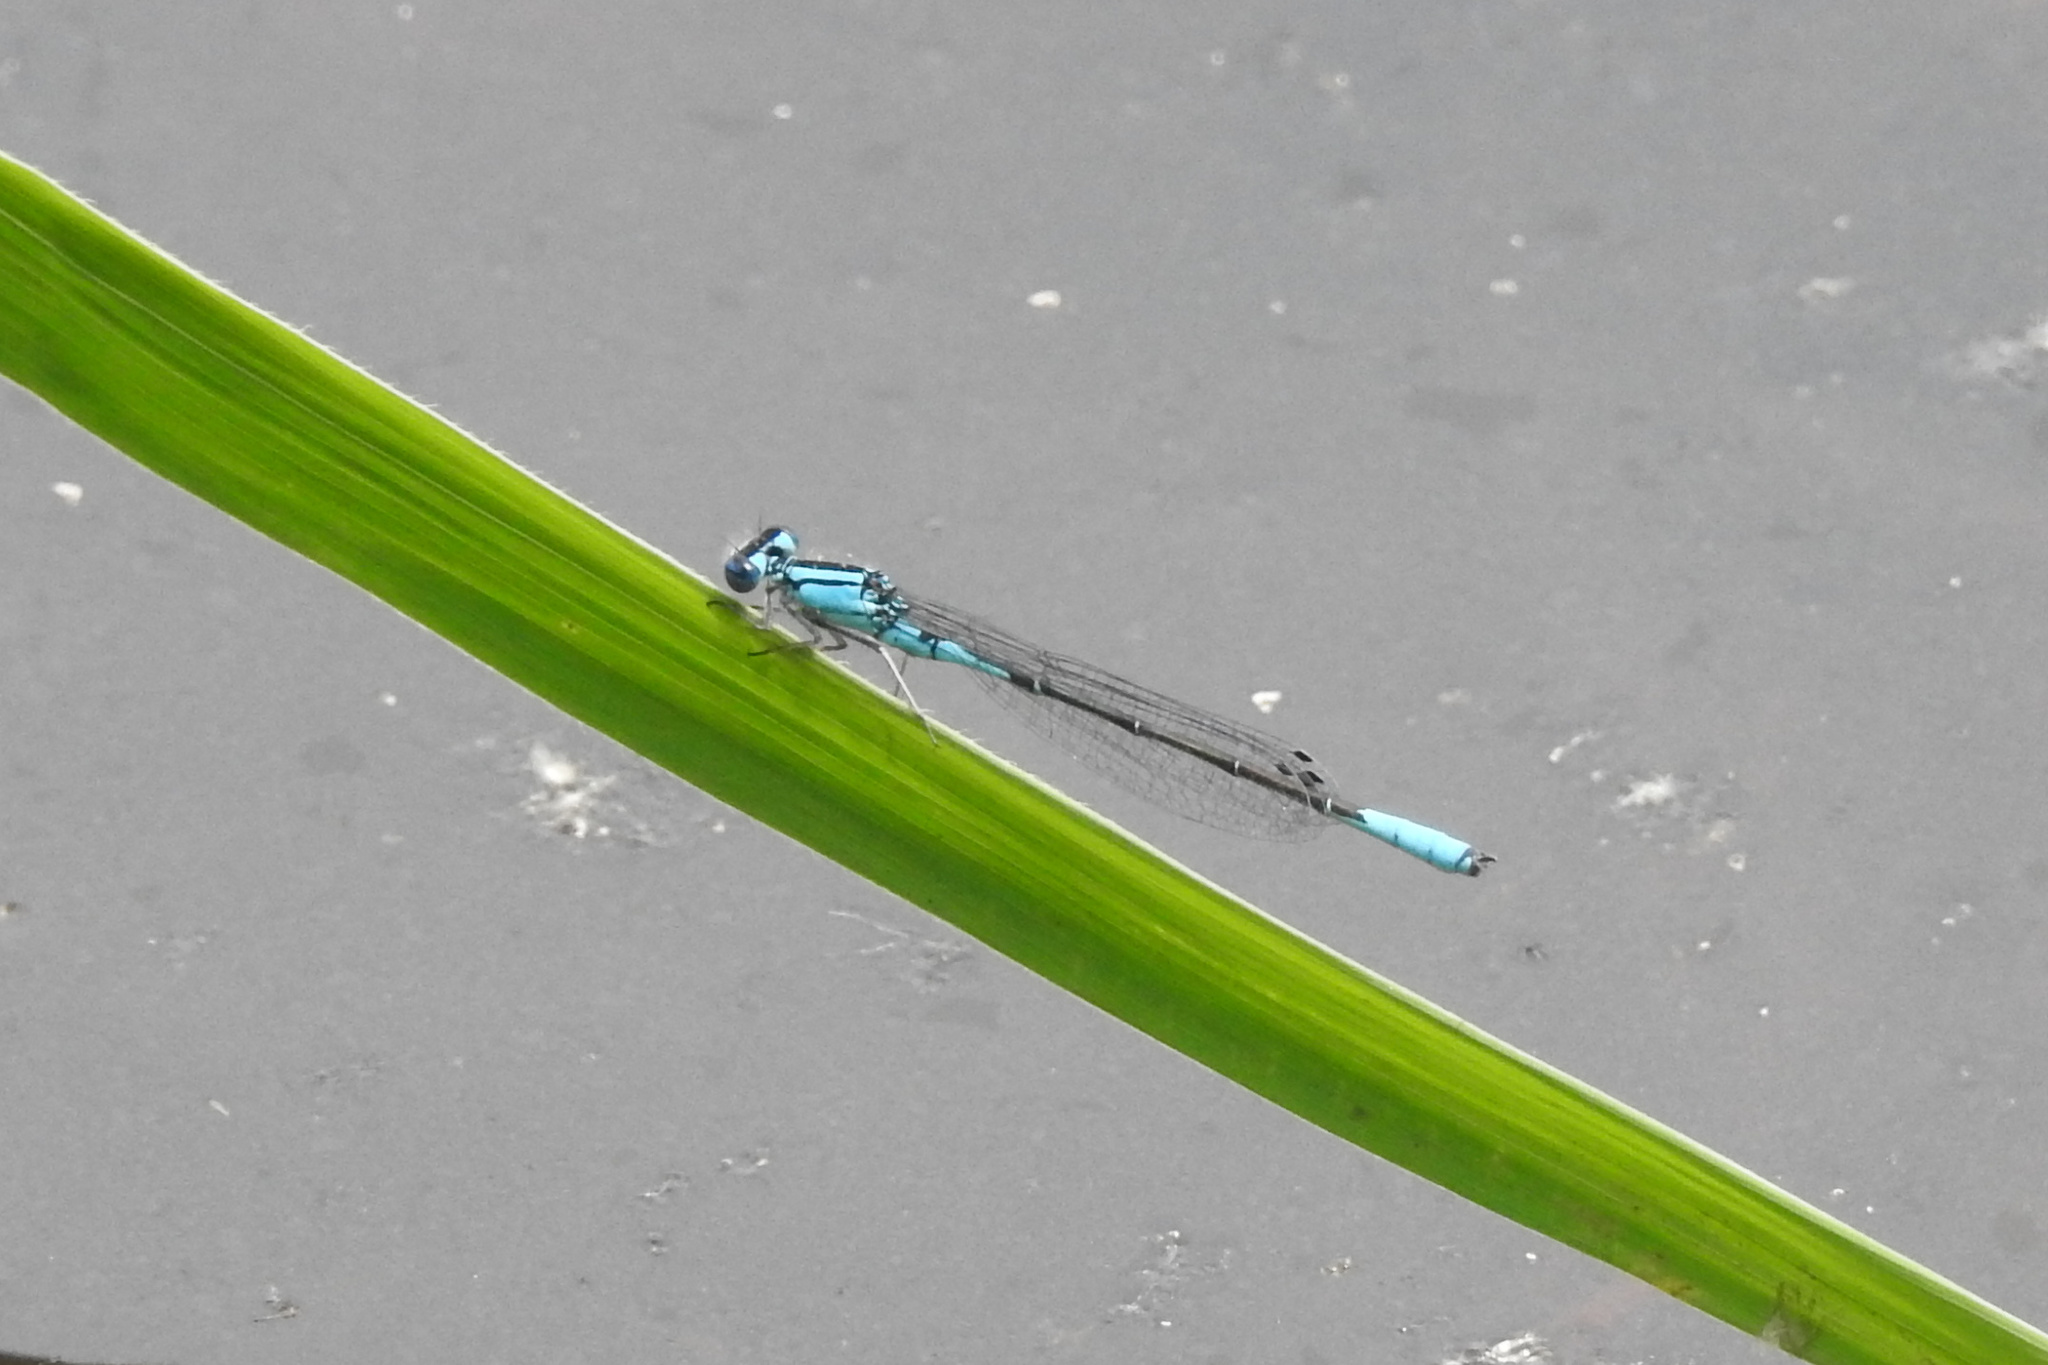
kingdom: Animalia
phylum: Arthropoda
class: Insecta
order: Odonata
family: Coenagrionidae
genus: Enallagma
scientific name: Enallagma aspersum
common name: Azure bluet
